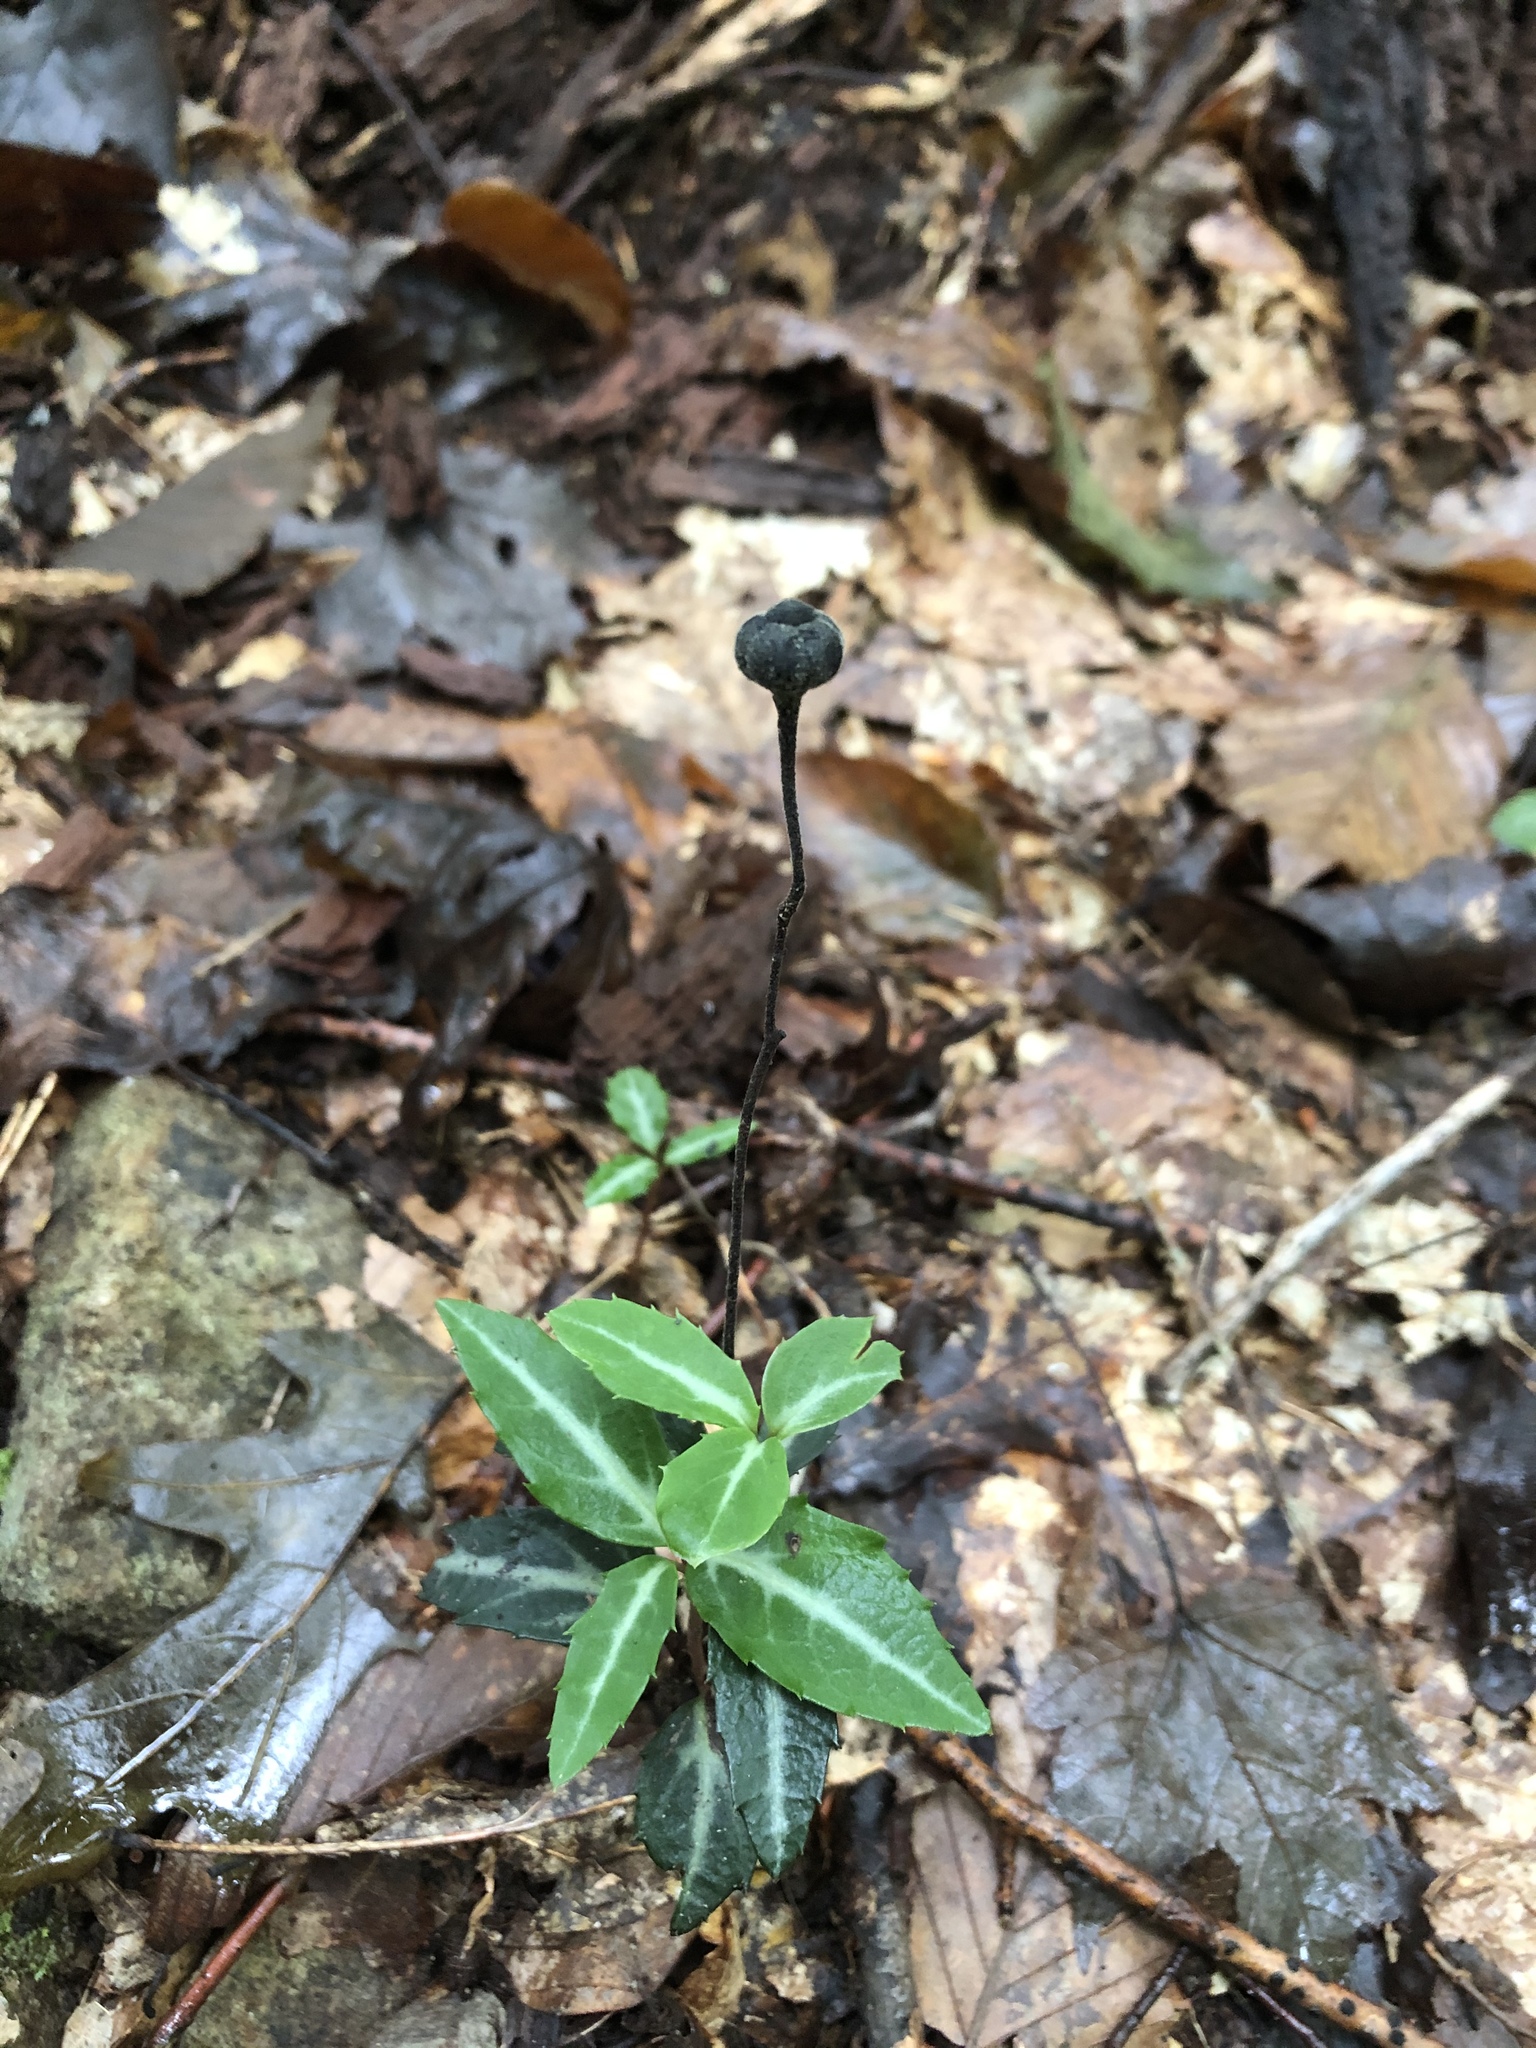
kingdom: Plantae
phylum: Tracheophyta
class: Magnoliopsida
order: Ericales
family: Ericaceae
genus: Chimaphila
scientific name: Chimaphila maculata
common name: Spotted pipsissewa
